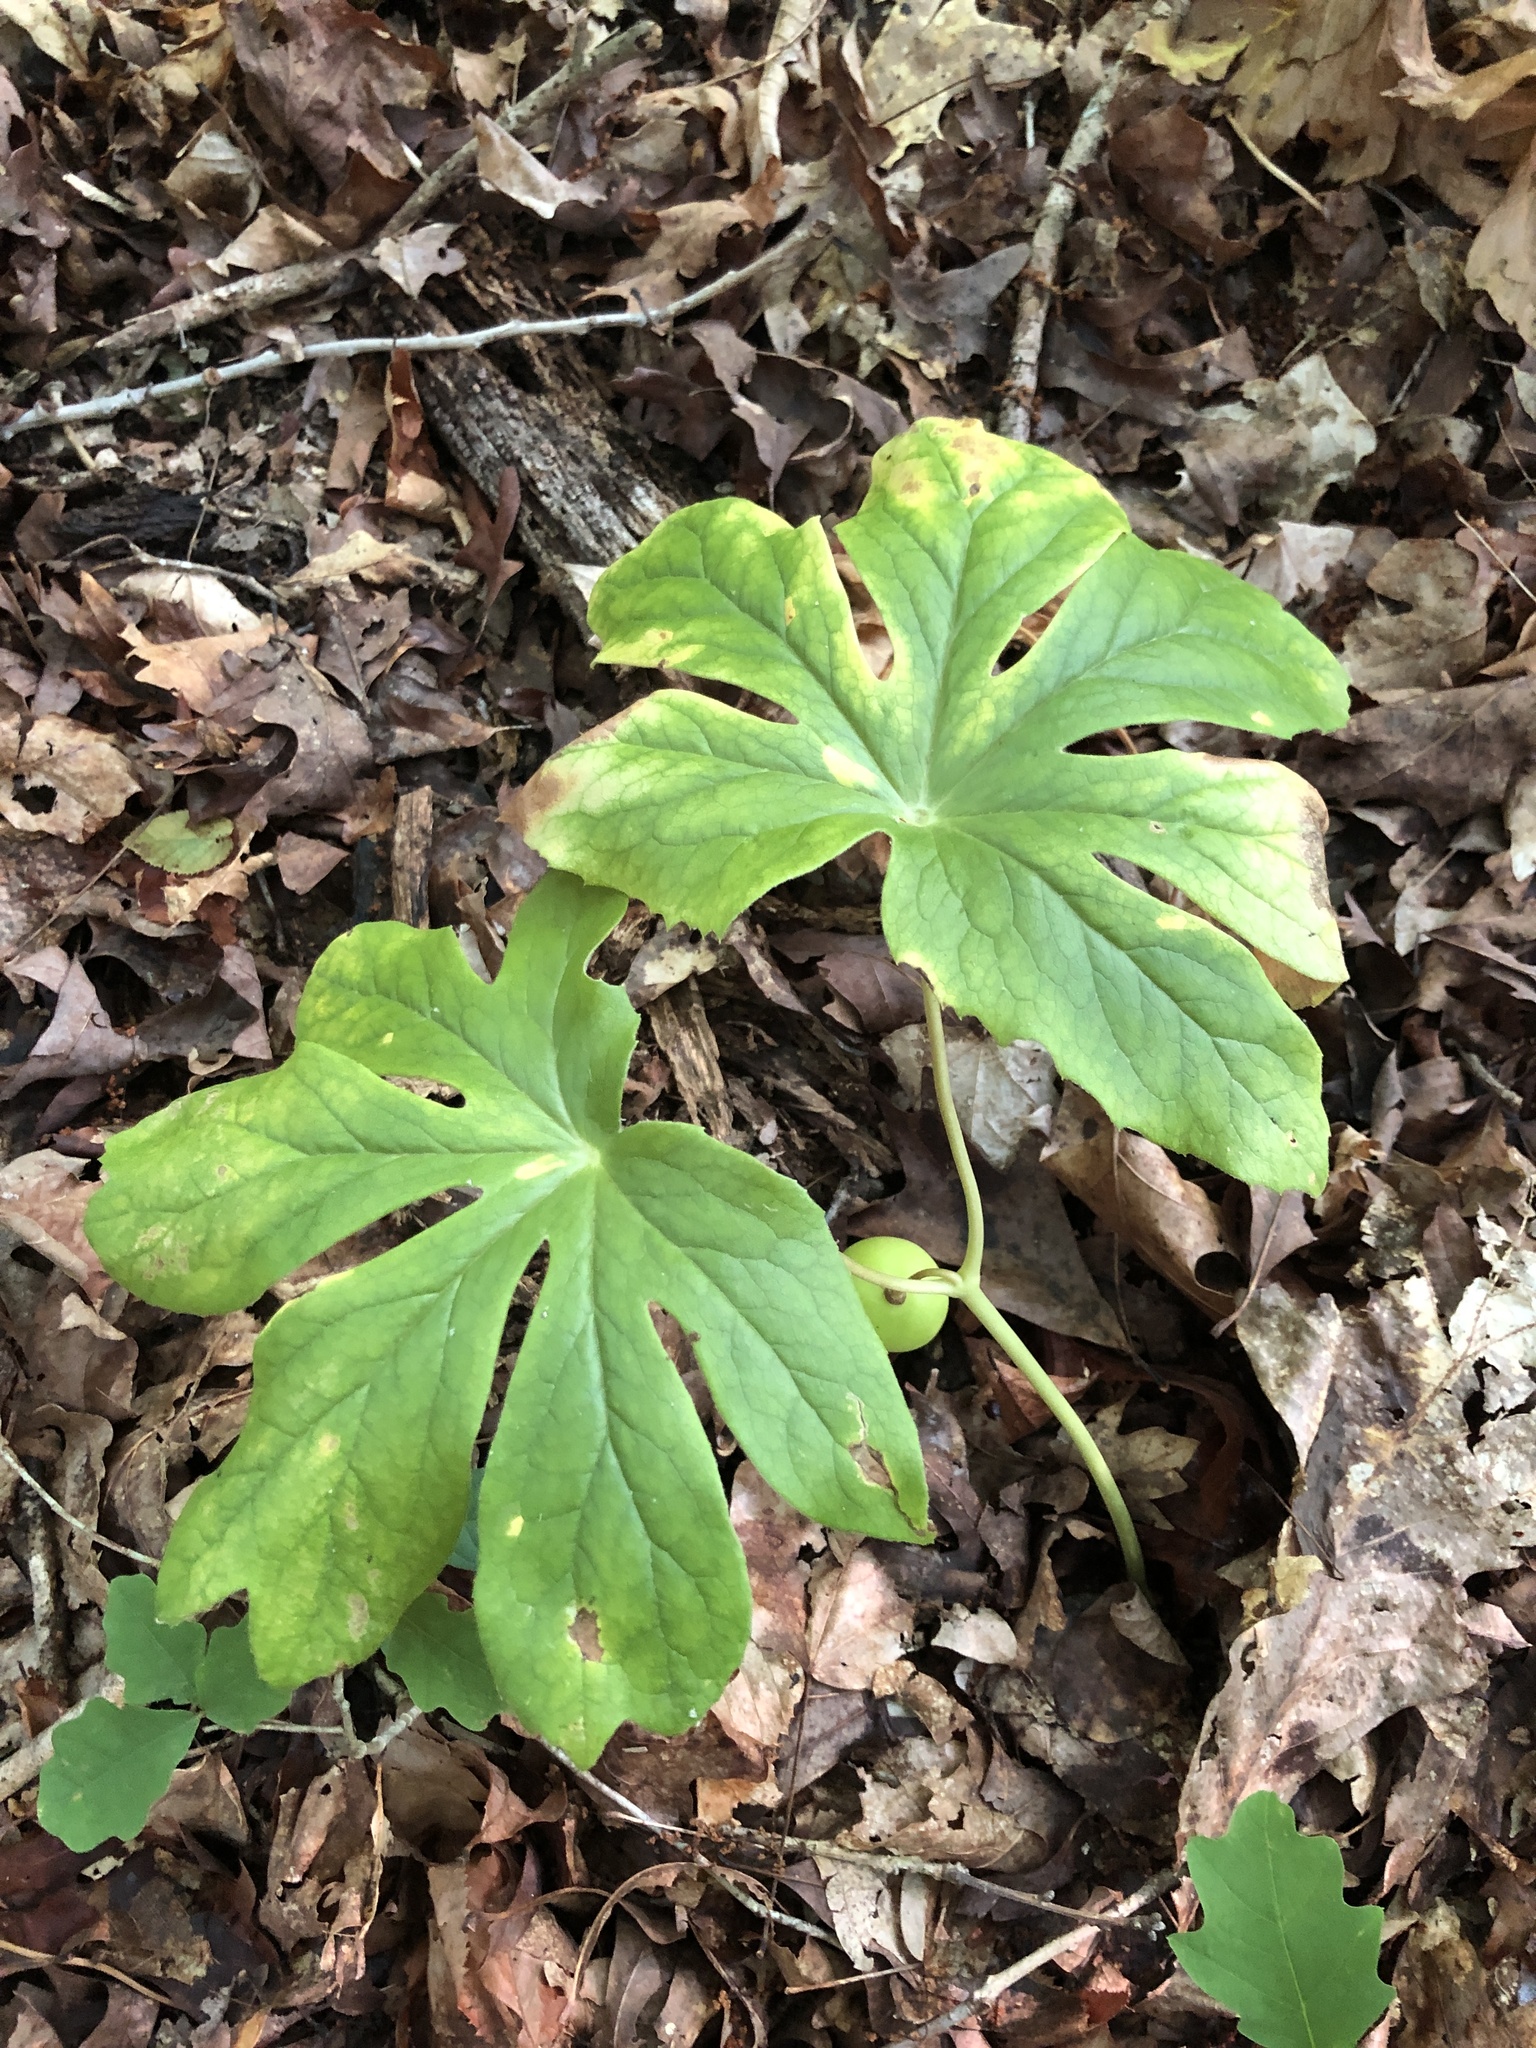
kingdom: Plantae
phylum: Tracheophyta
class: Magnoliopsida
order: Ranunculales
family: Berberidaceae
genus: Podophyllum
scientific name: Podophyllum peltatum
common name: Wild mandrake
